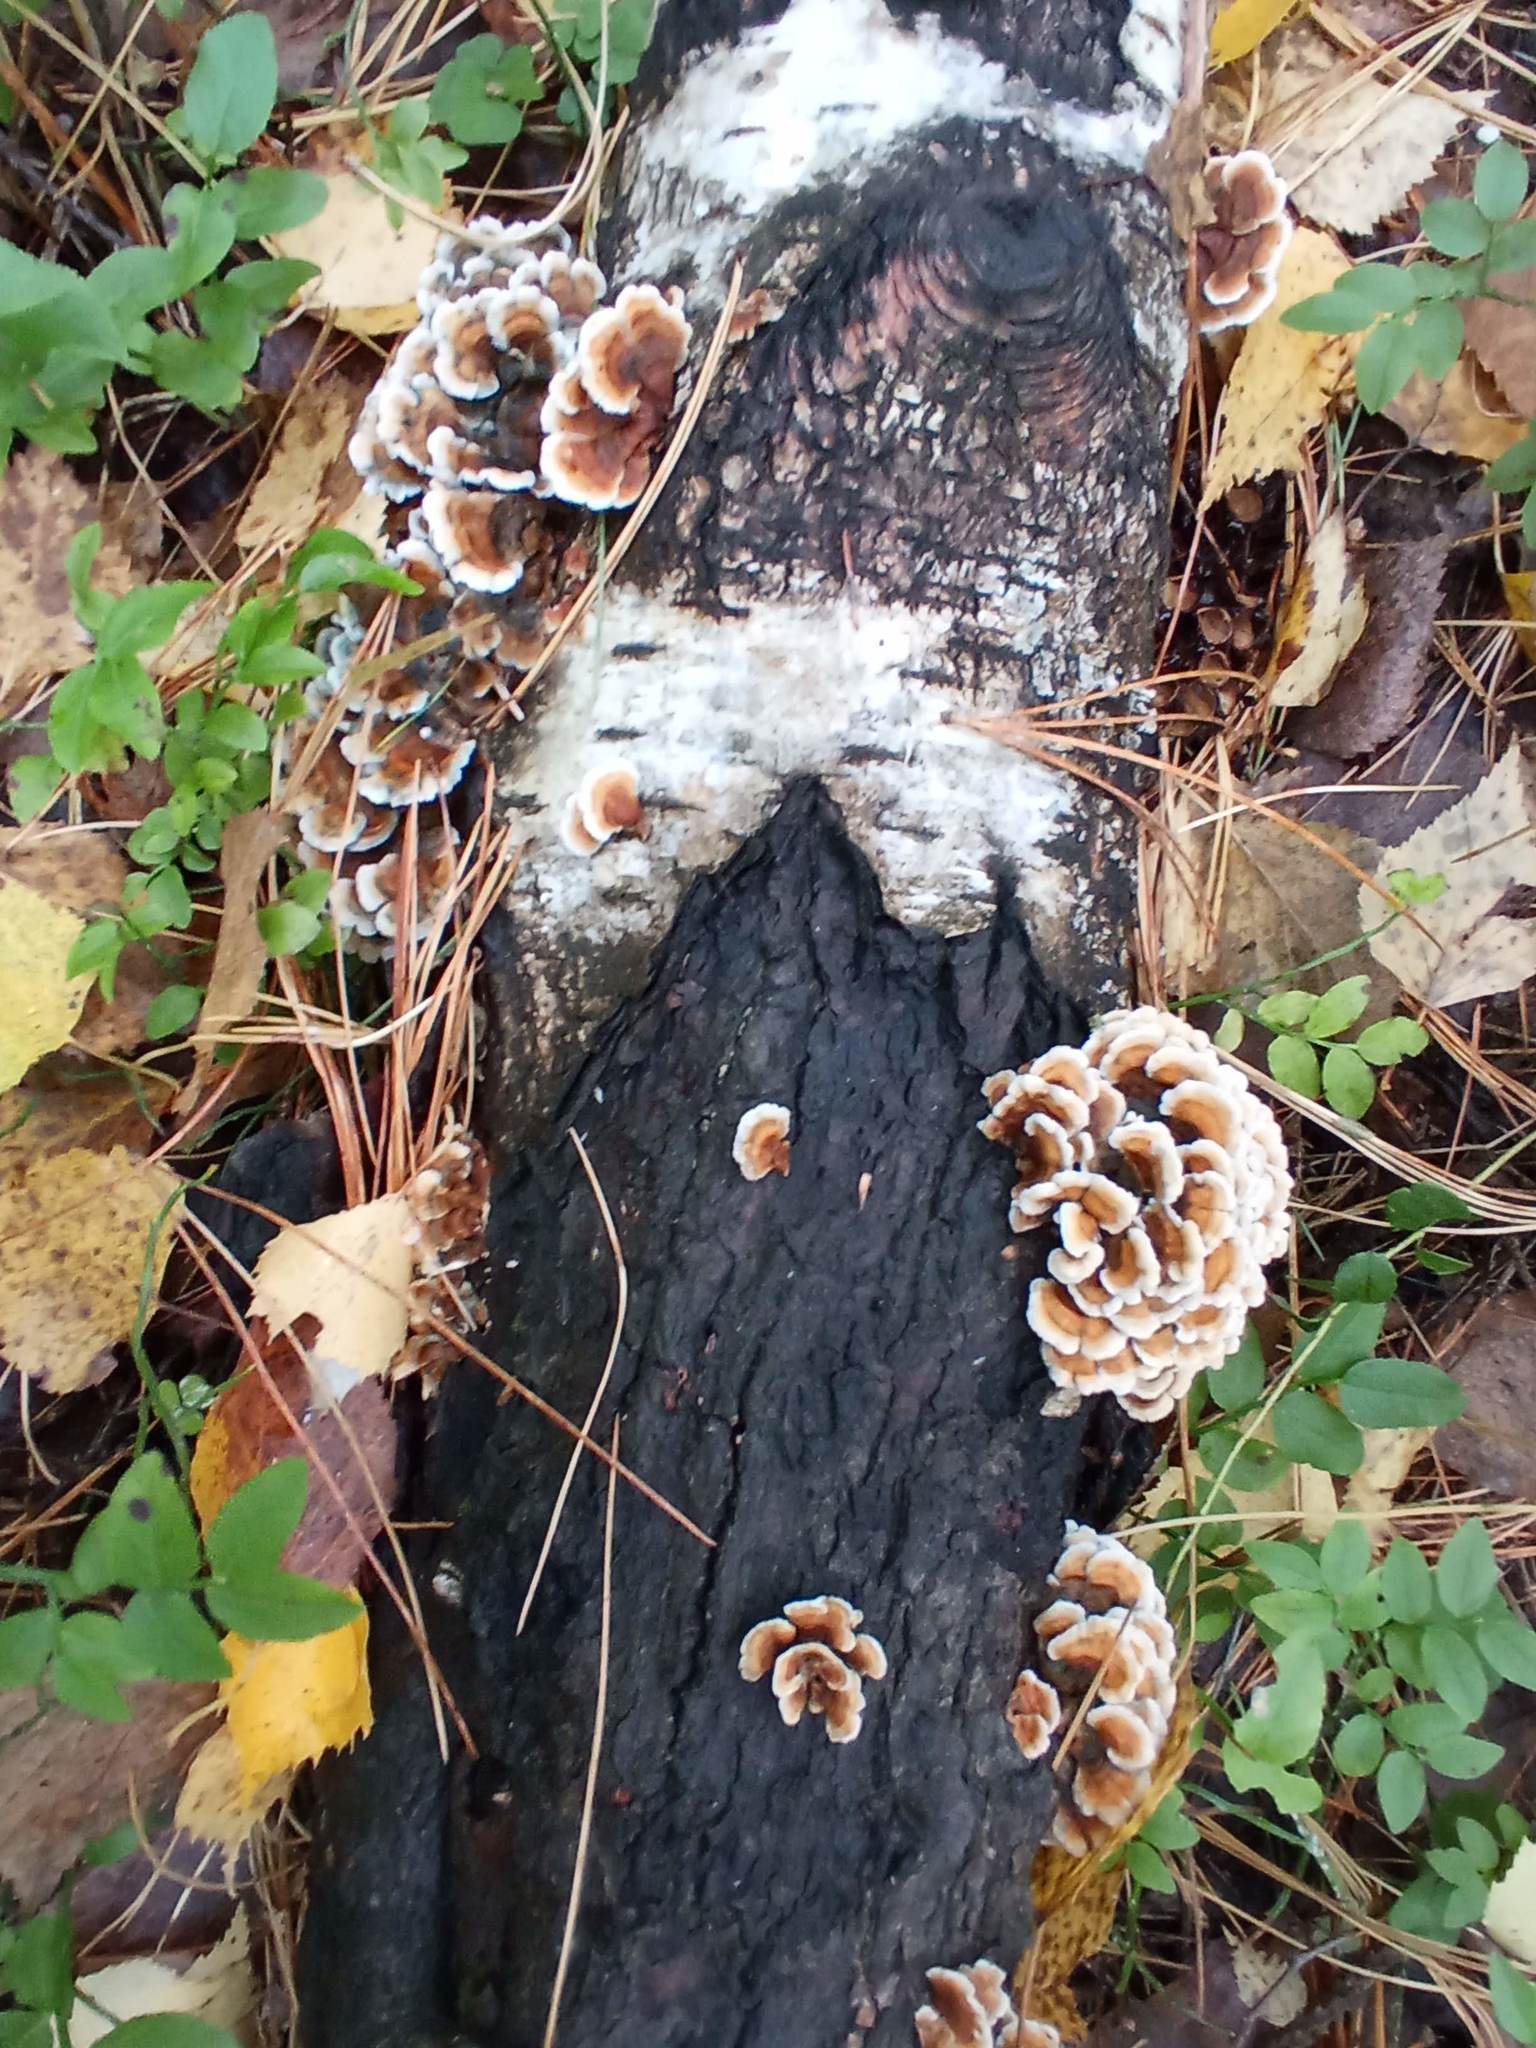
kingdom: Fungi
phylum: Basidiomycota
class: Agaricomycetes
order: Amylocorticiales
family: Amylocorticiaceae
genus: Plicaturopsis
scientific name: Plicaturopsis crispa
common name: Crimped gill
